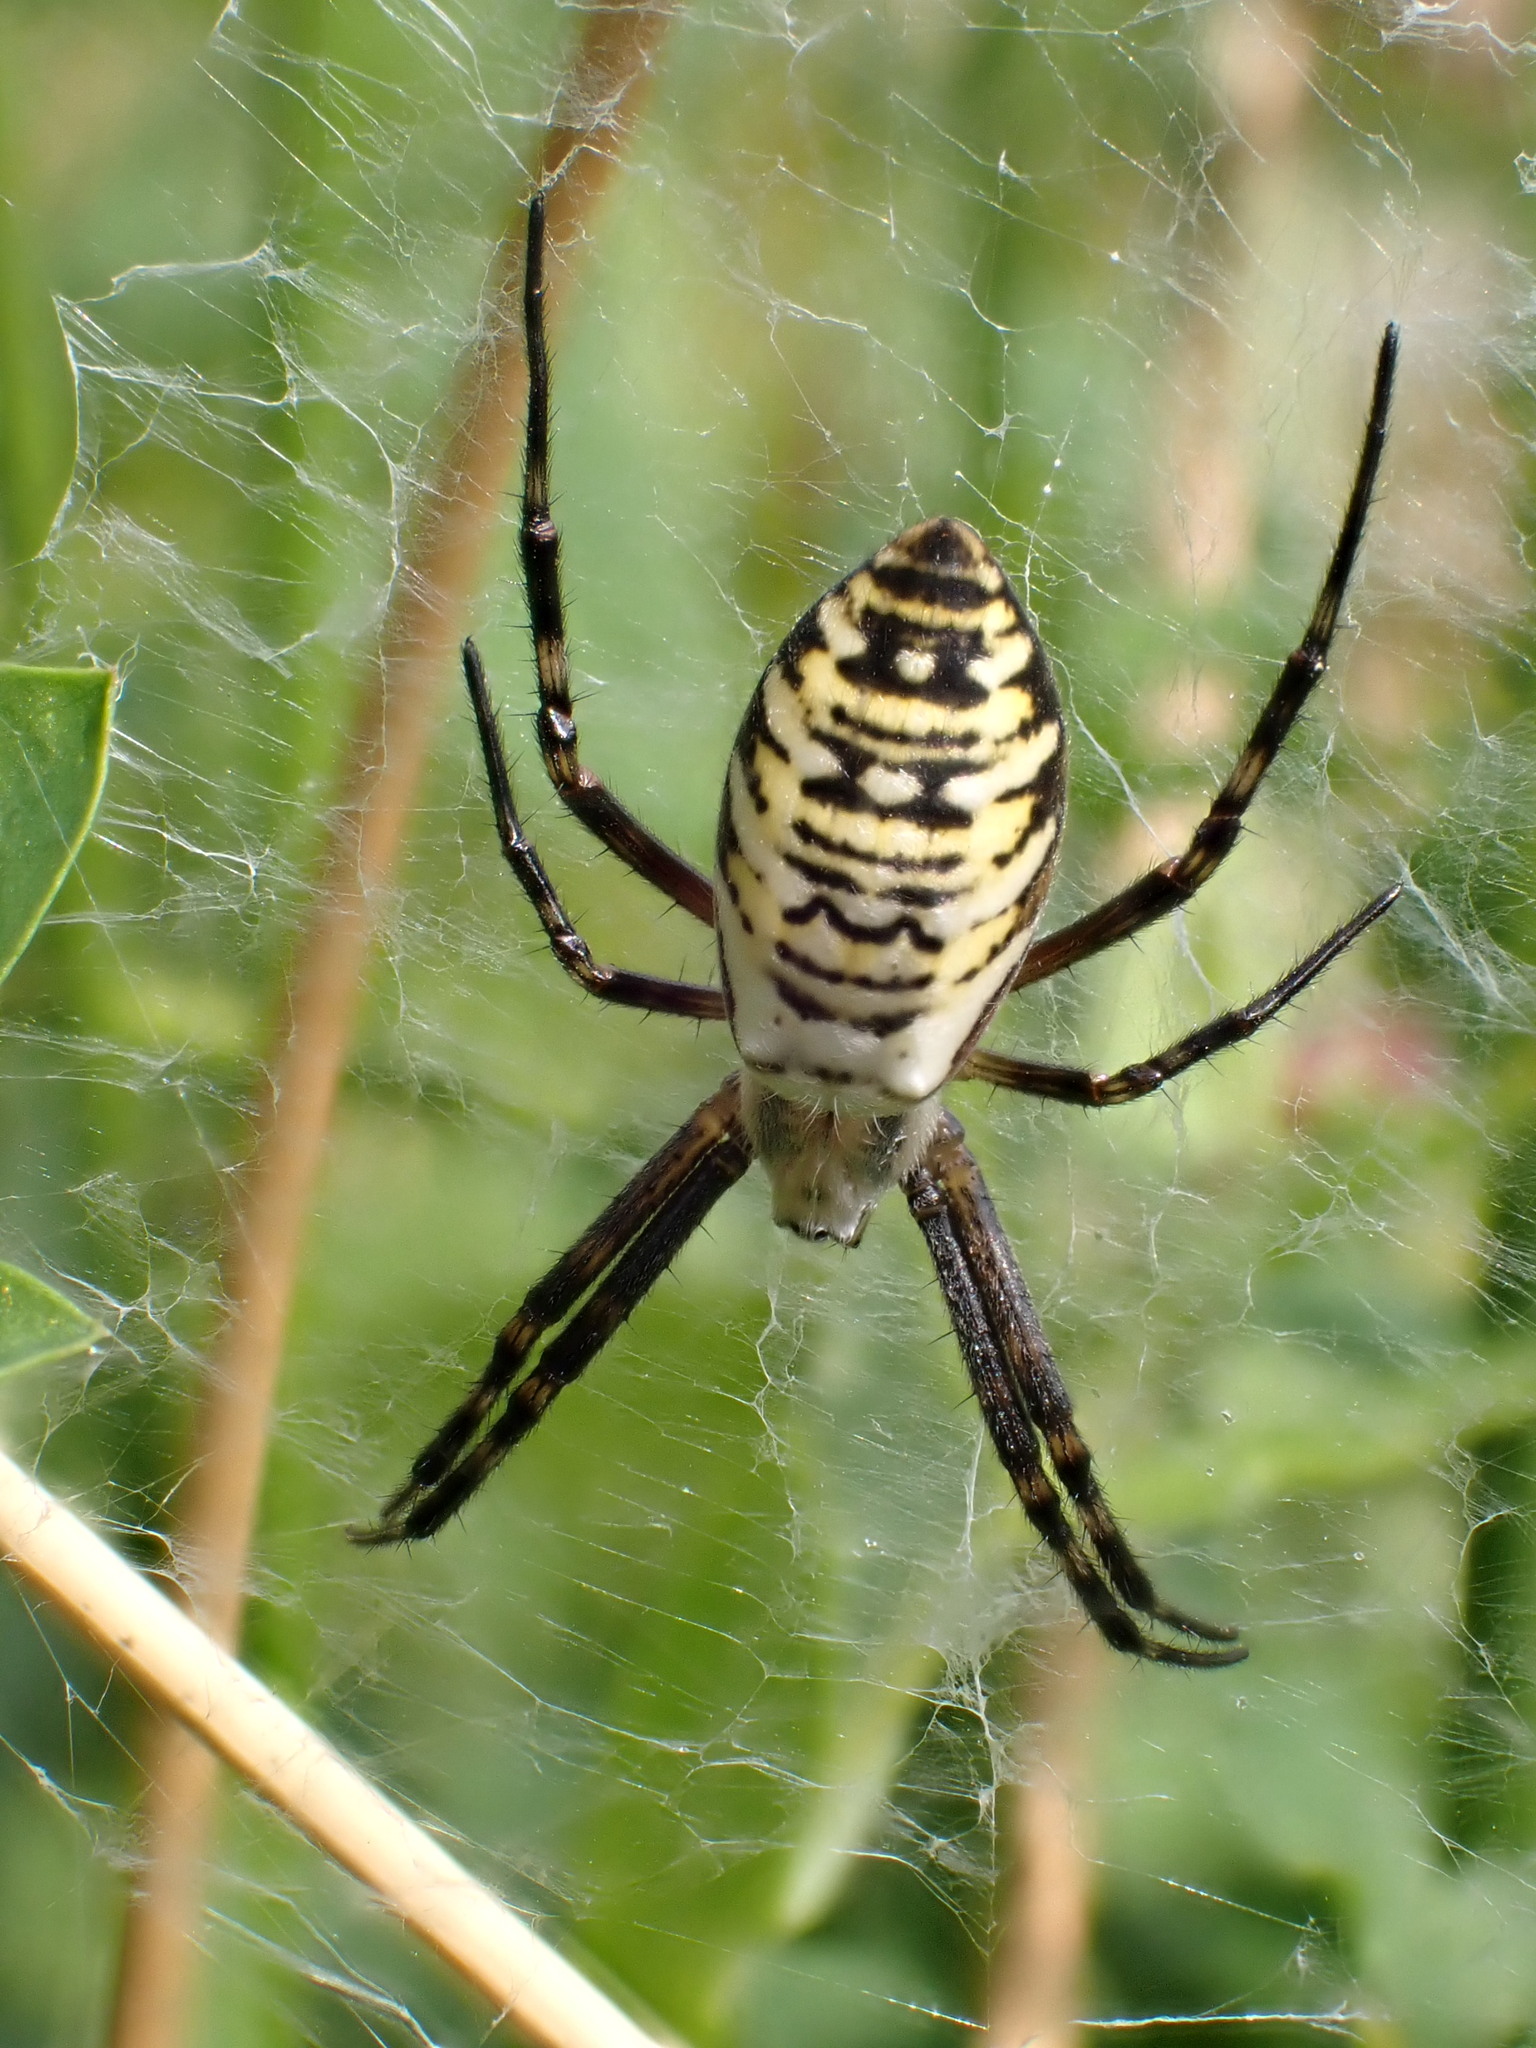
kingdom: Animalia
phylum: Arthropoda
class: Arachnida
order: Araneae
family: Araneidae
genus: Argiope
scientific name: Argiope bruennichi
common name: Wasp spider
